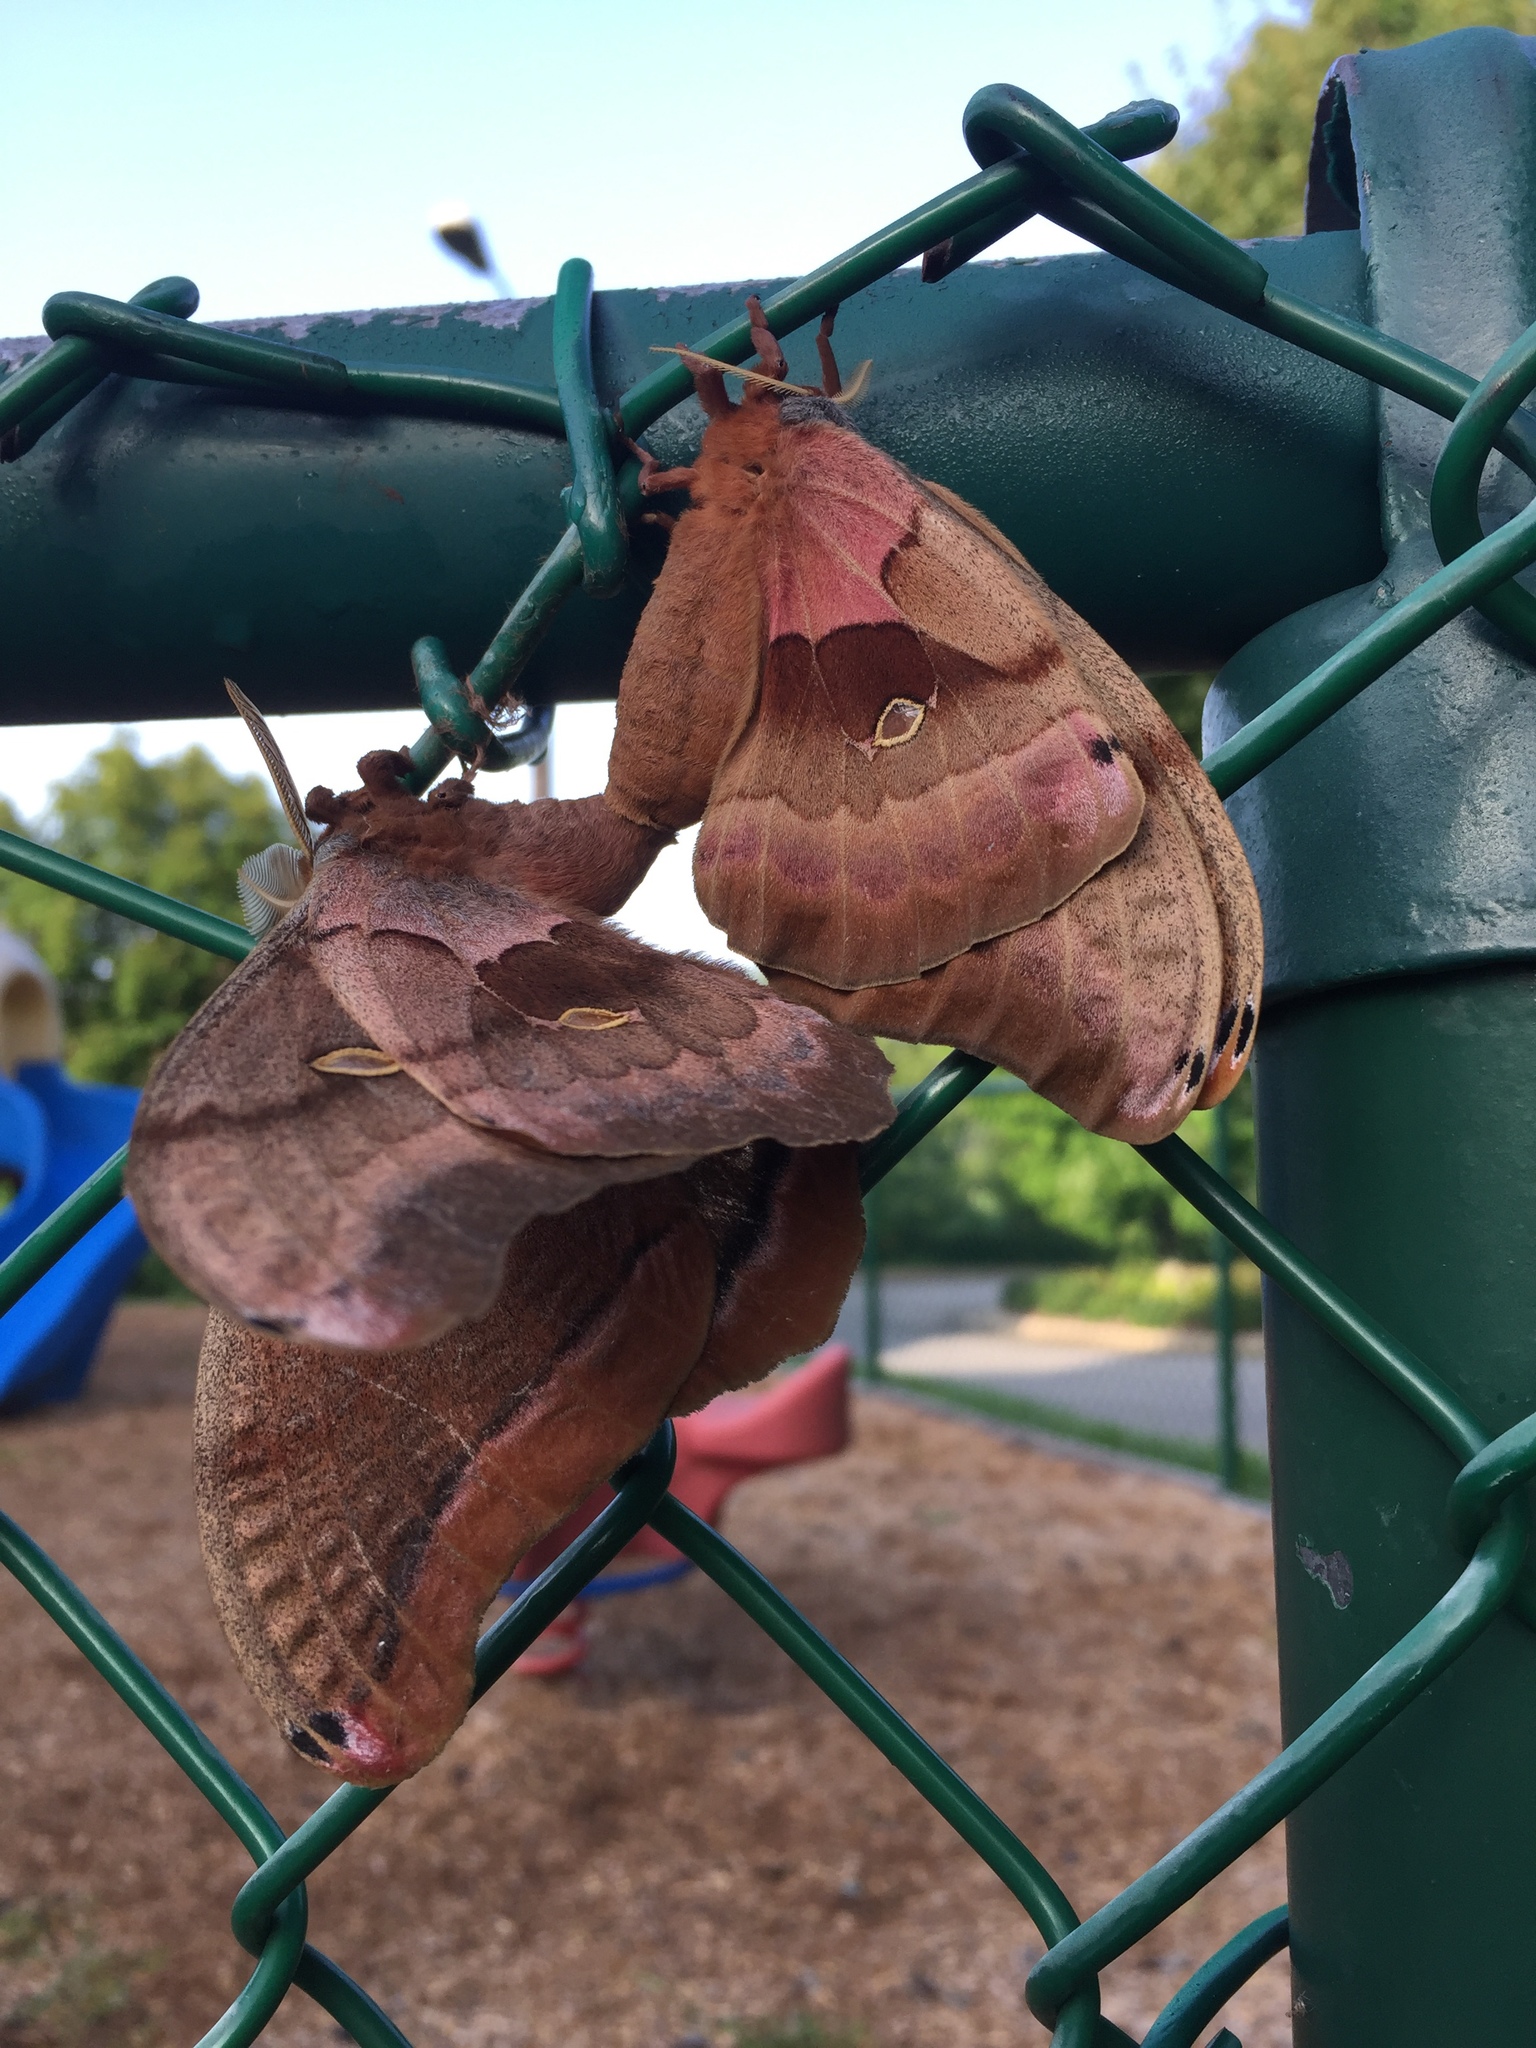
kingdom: Animalia
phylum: Arthropoda
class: Insecta
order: Lepidoptera
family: Saturniidae
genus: Antheraea
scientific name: Antheraea polyphemus
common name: Polyphemus moth
